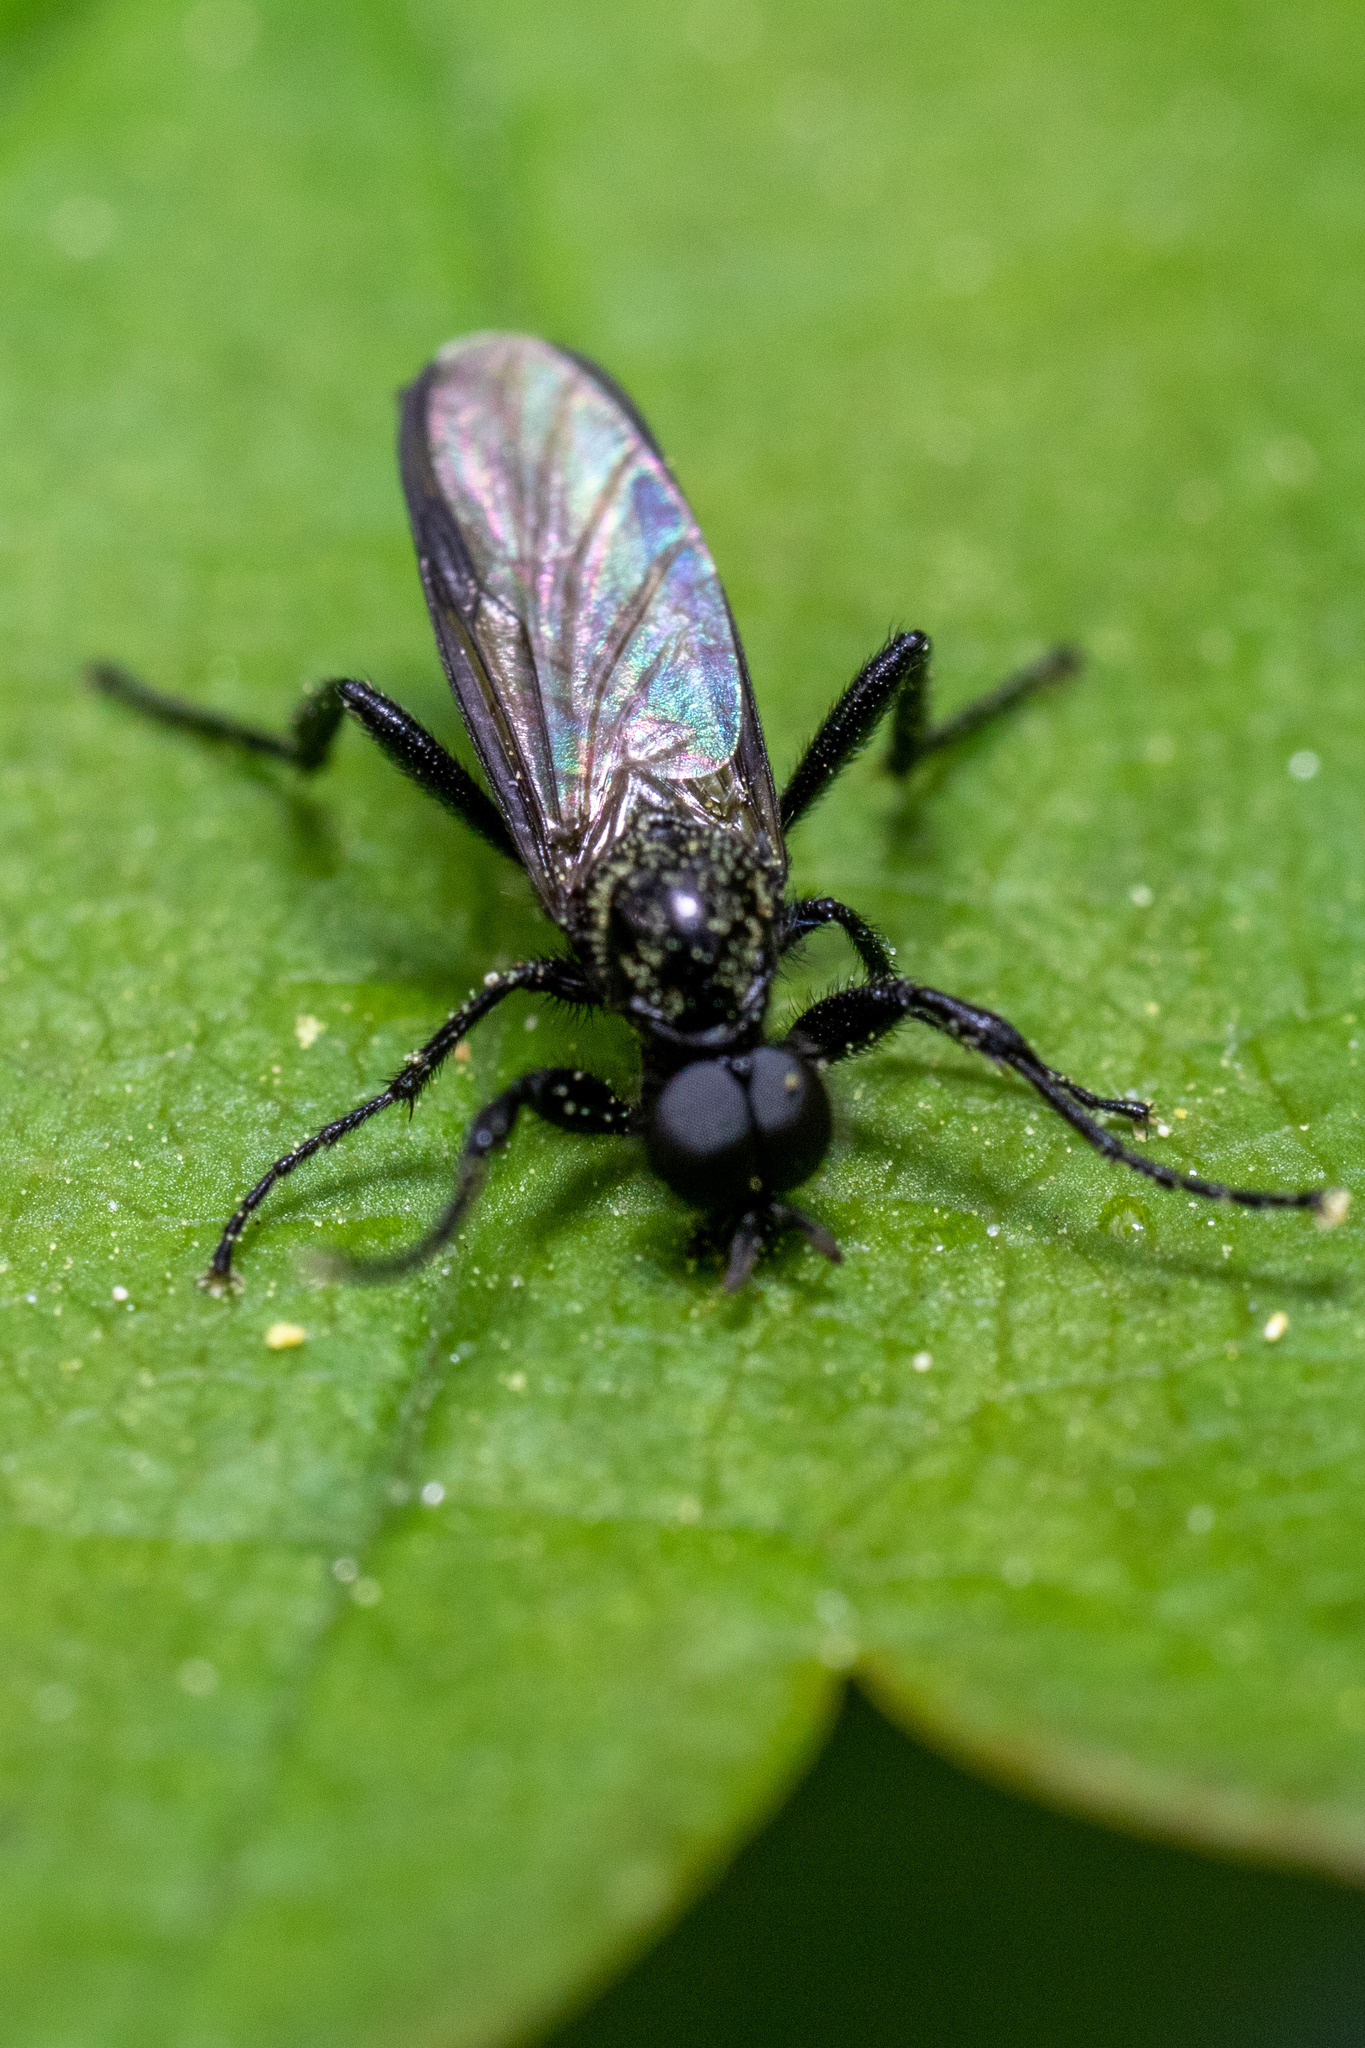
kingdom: Animalia
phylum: Arthropoda
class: Insecta
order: Diptera
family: Bibionidae
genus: Bibio
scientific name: Bibio marci
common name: St marks fly
